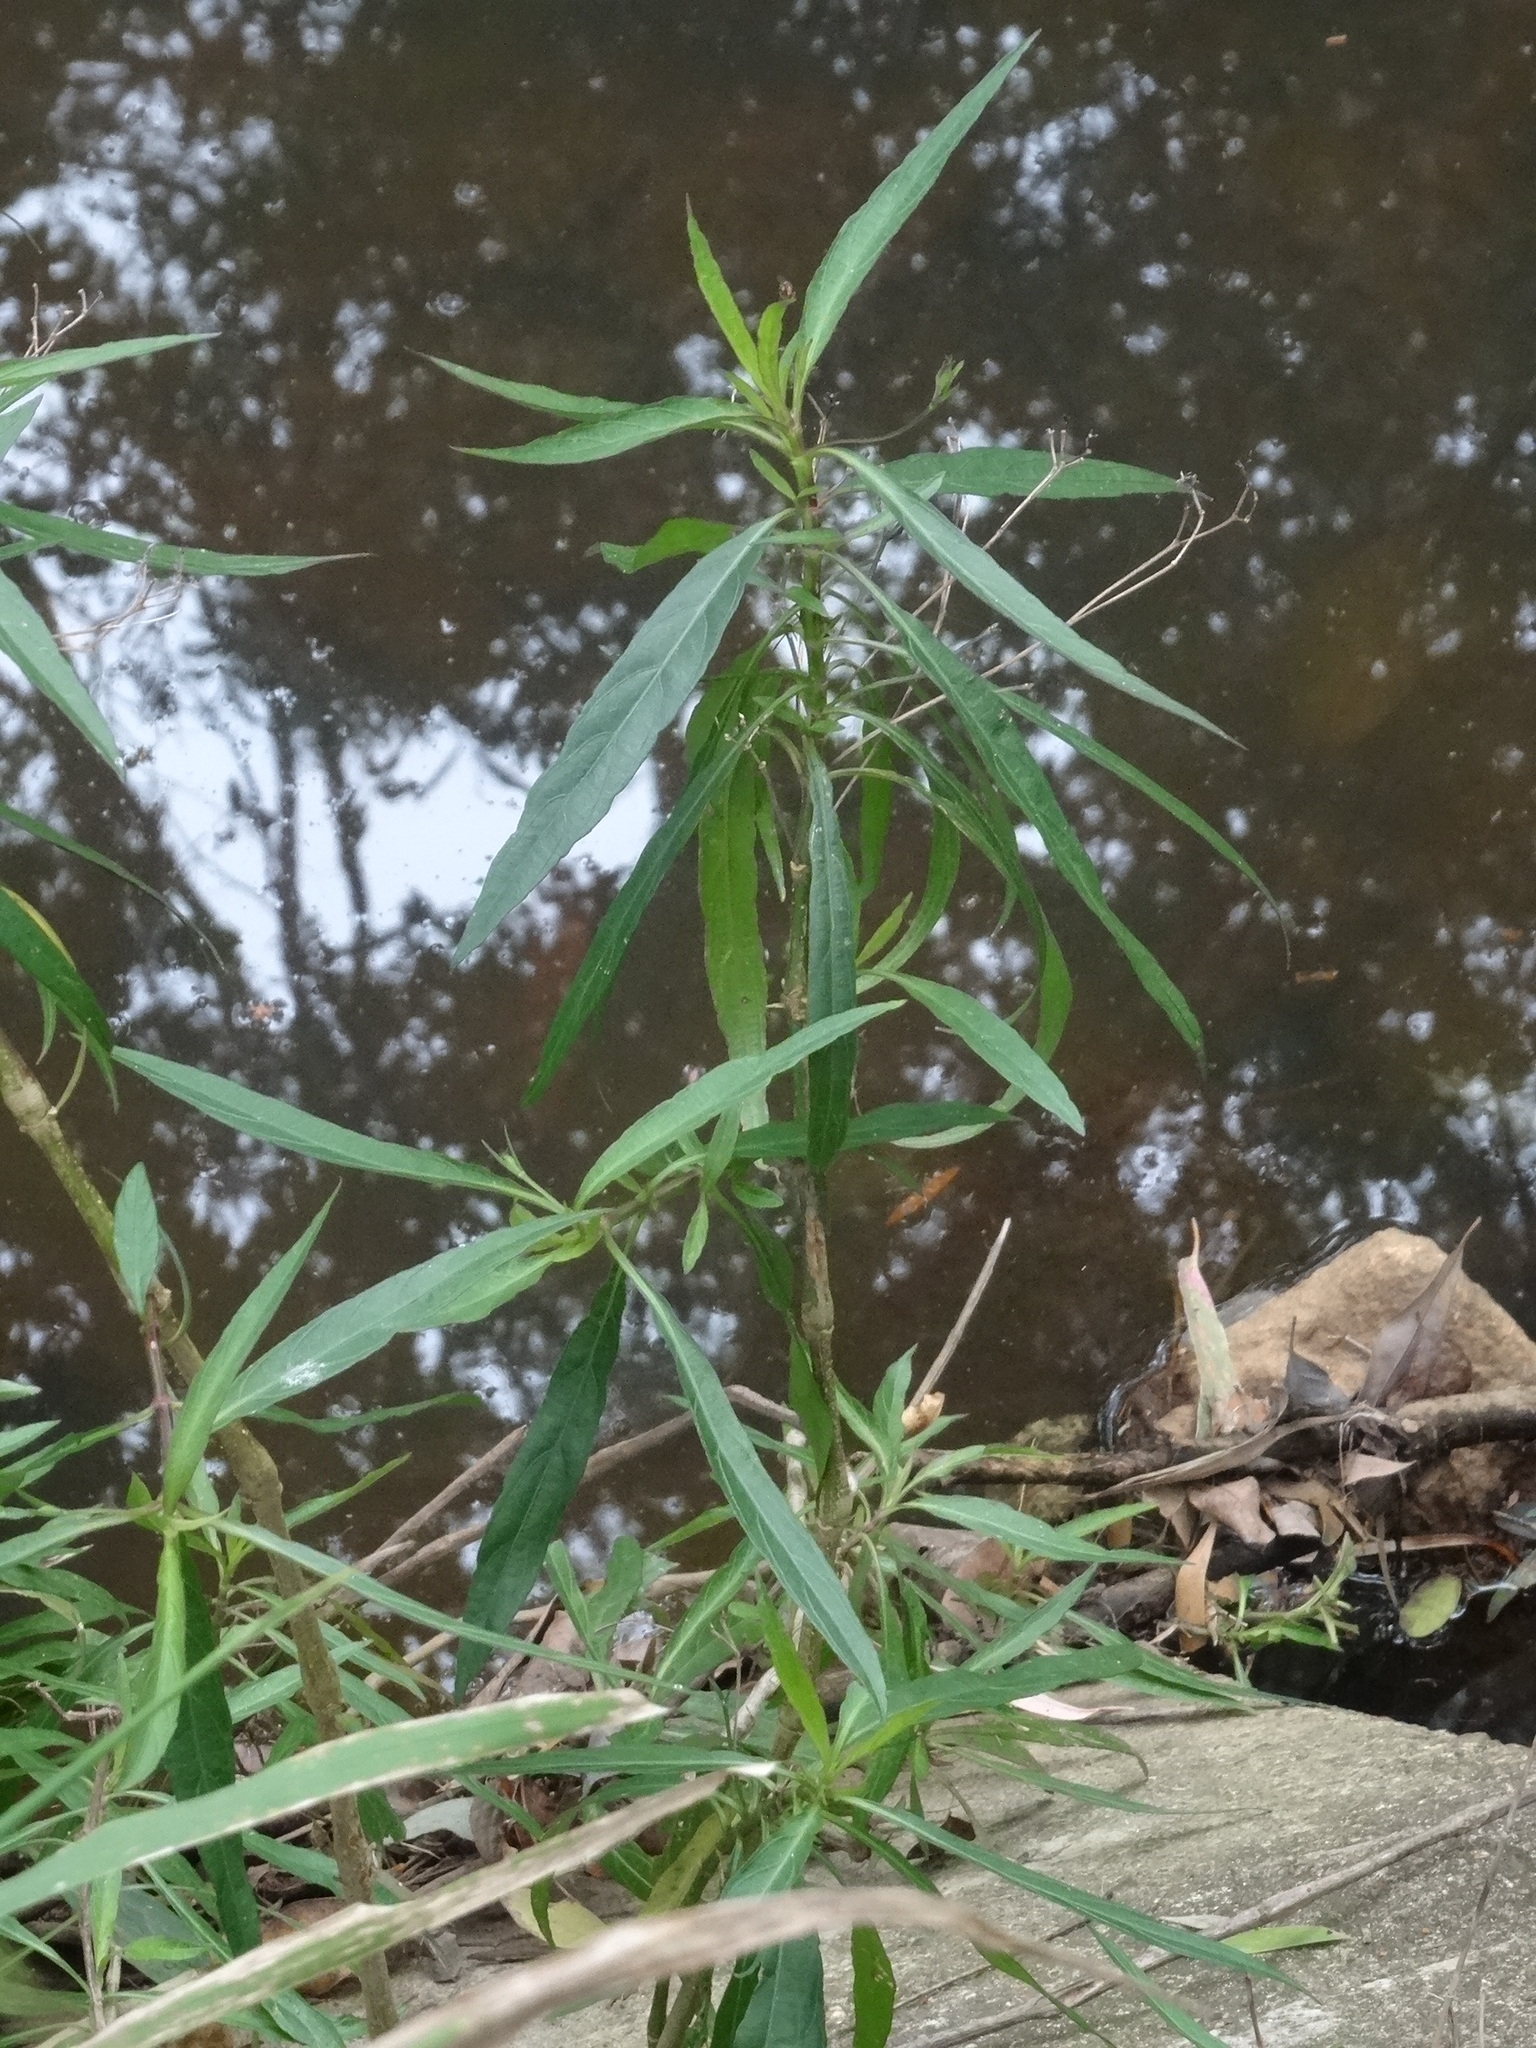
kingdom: Plantae
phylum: Tracheophyta
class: Magnoliopsida
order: Lamiales
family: Acanthaceae
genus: Ruellia
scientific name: Ruellia simplex
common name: Softseed wild petunia
